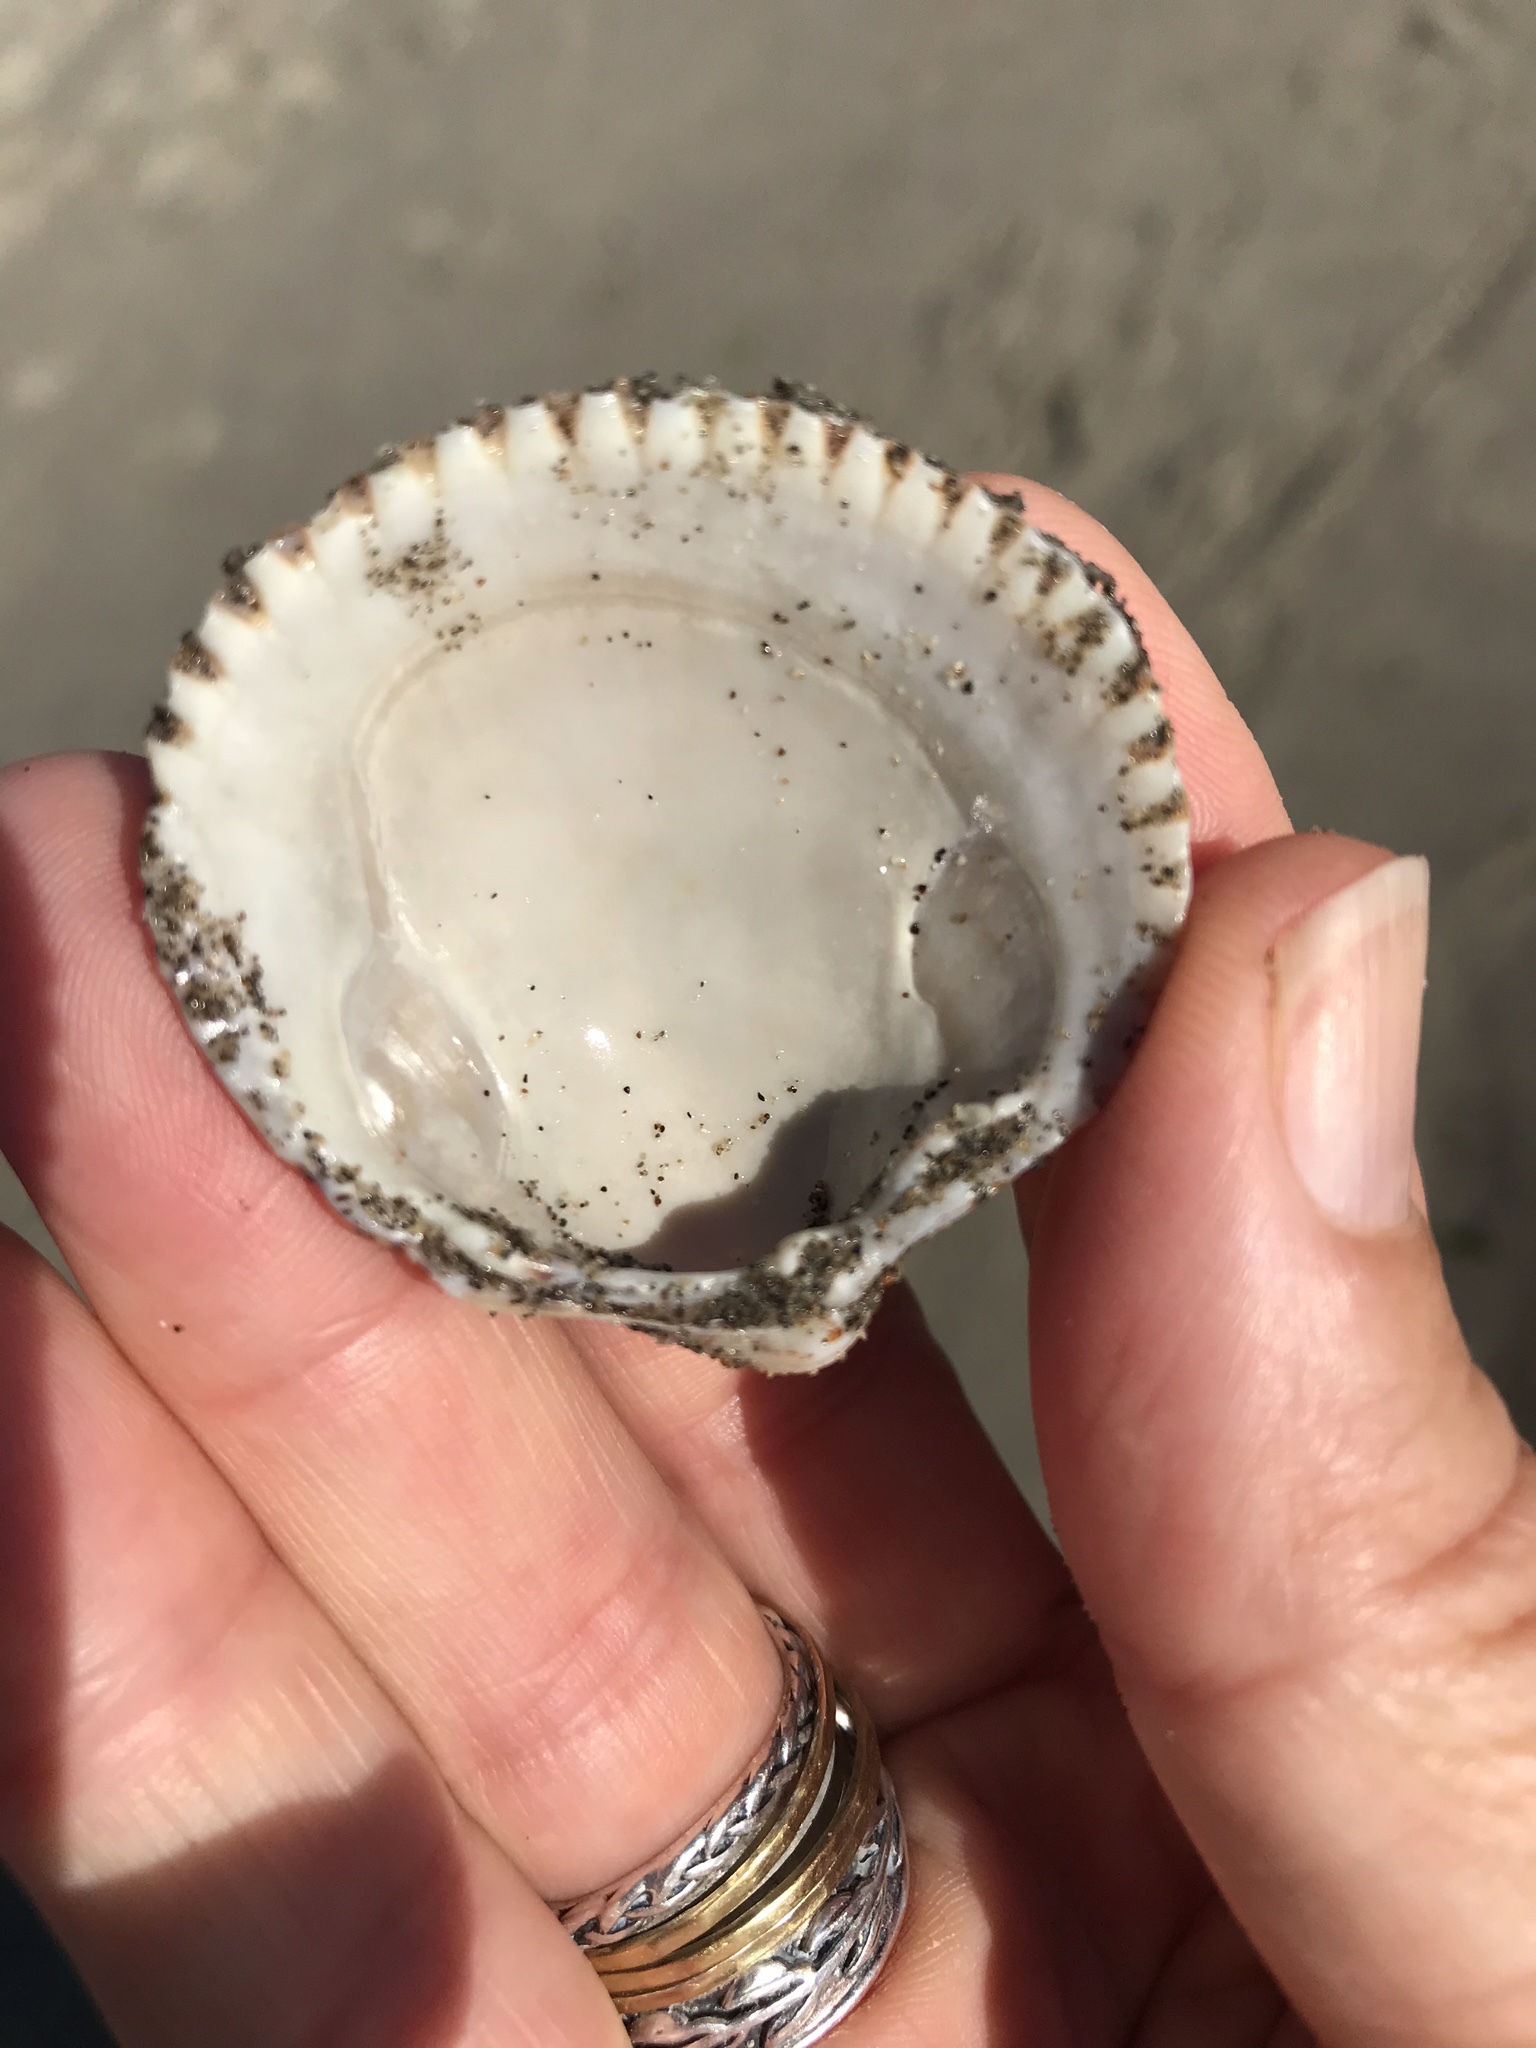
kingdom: Animalia
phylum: Mollusca
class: Bivalvia
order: Cardiida
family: Cardiidae
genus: Clinocardium
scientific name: Clinocardium nuttallii
